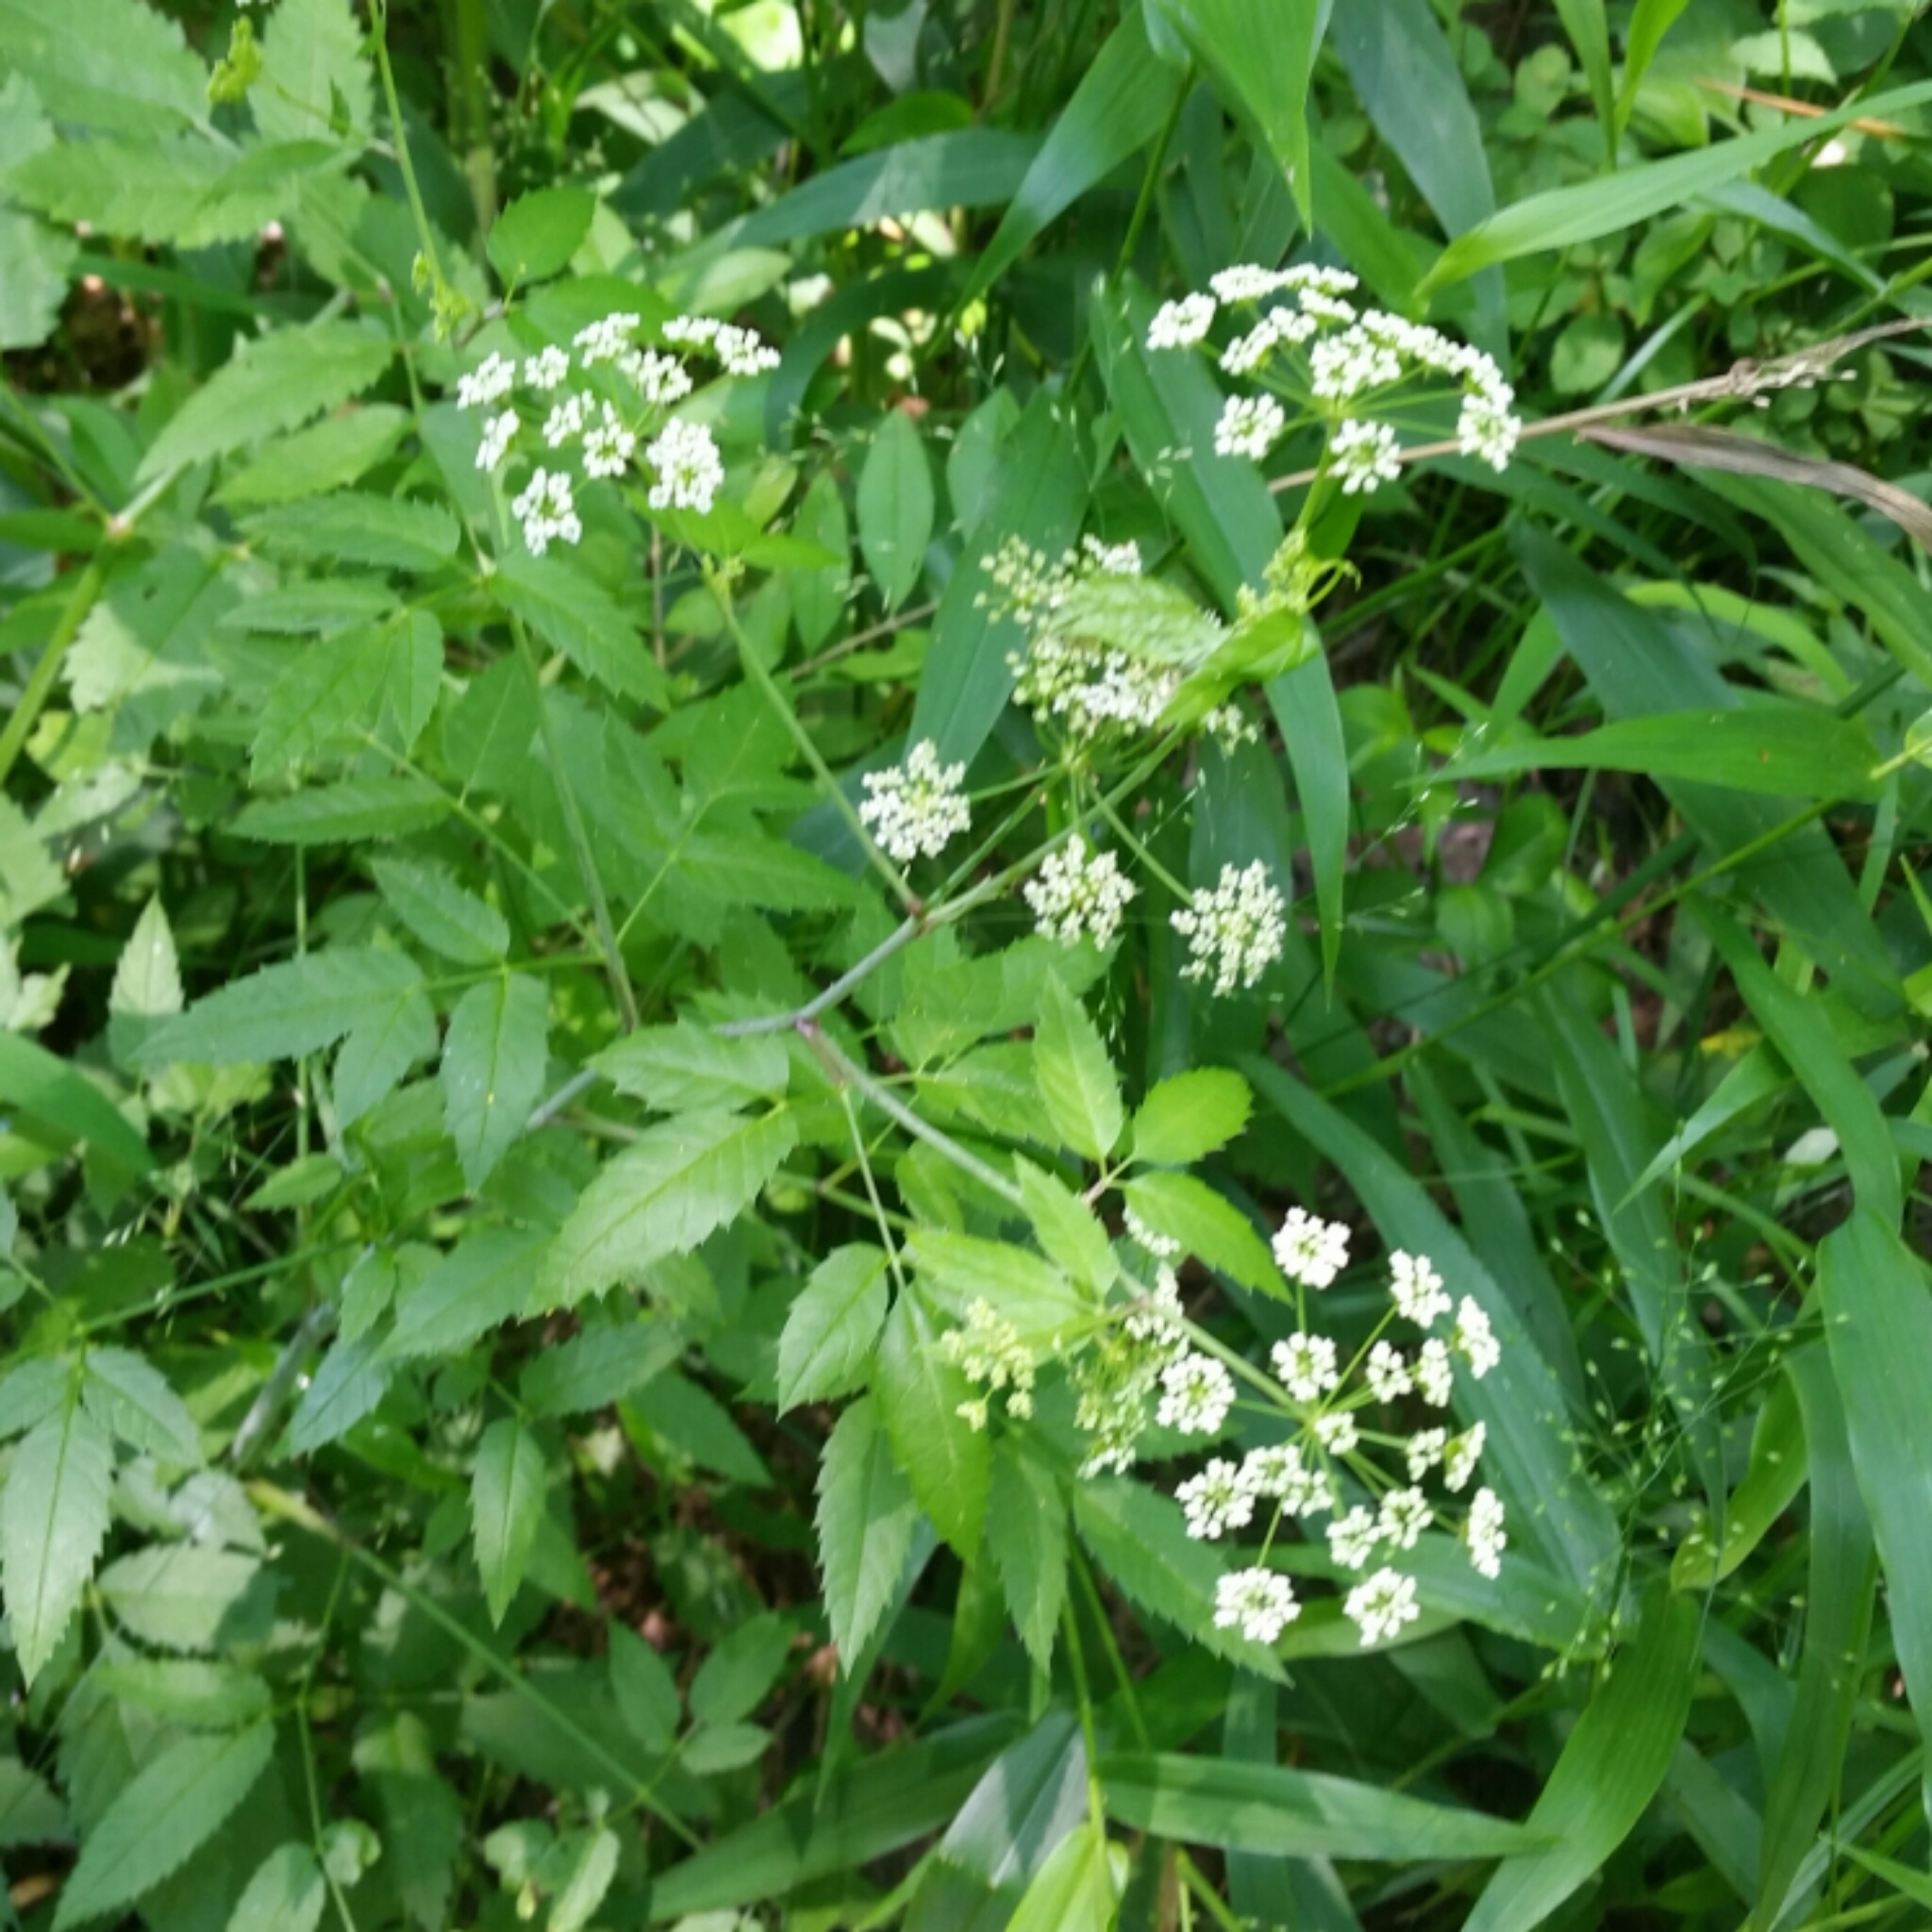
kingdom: Plantae
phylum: Tracheophyta
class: Magnoliopsida
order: Apiales
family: Apiaceae
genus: Cicuta
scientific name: Cicuta maculata
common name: Spotted cowbane
